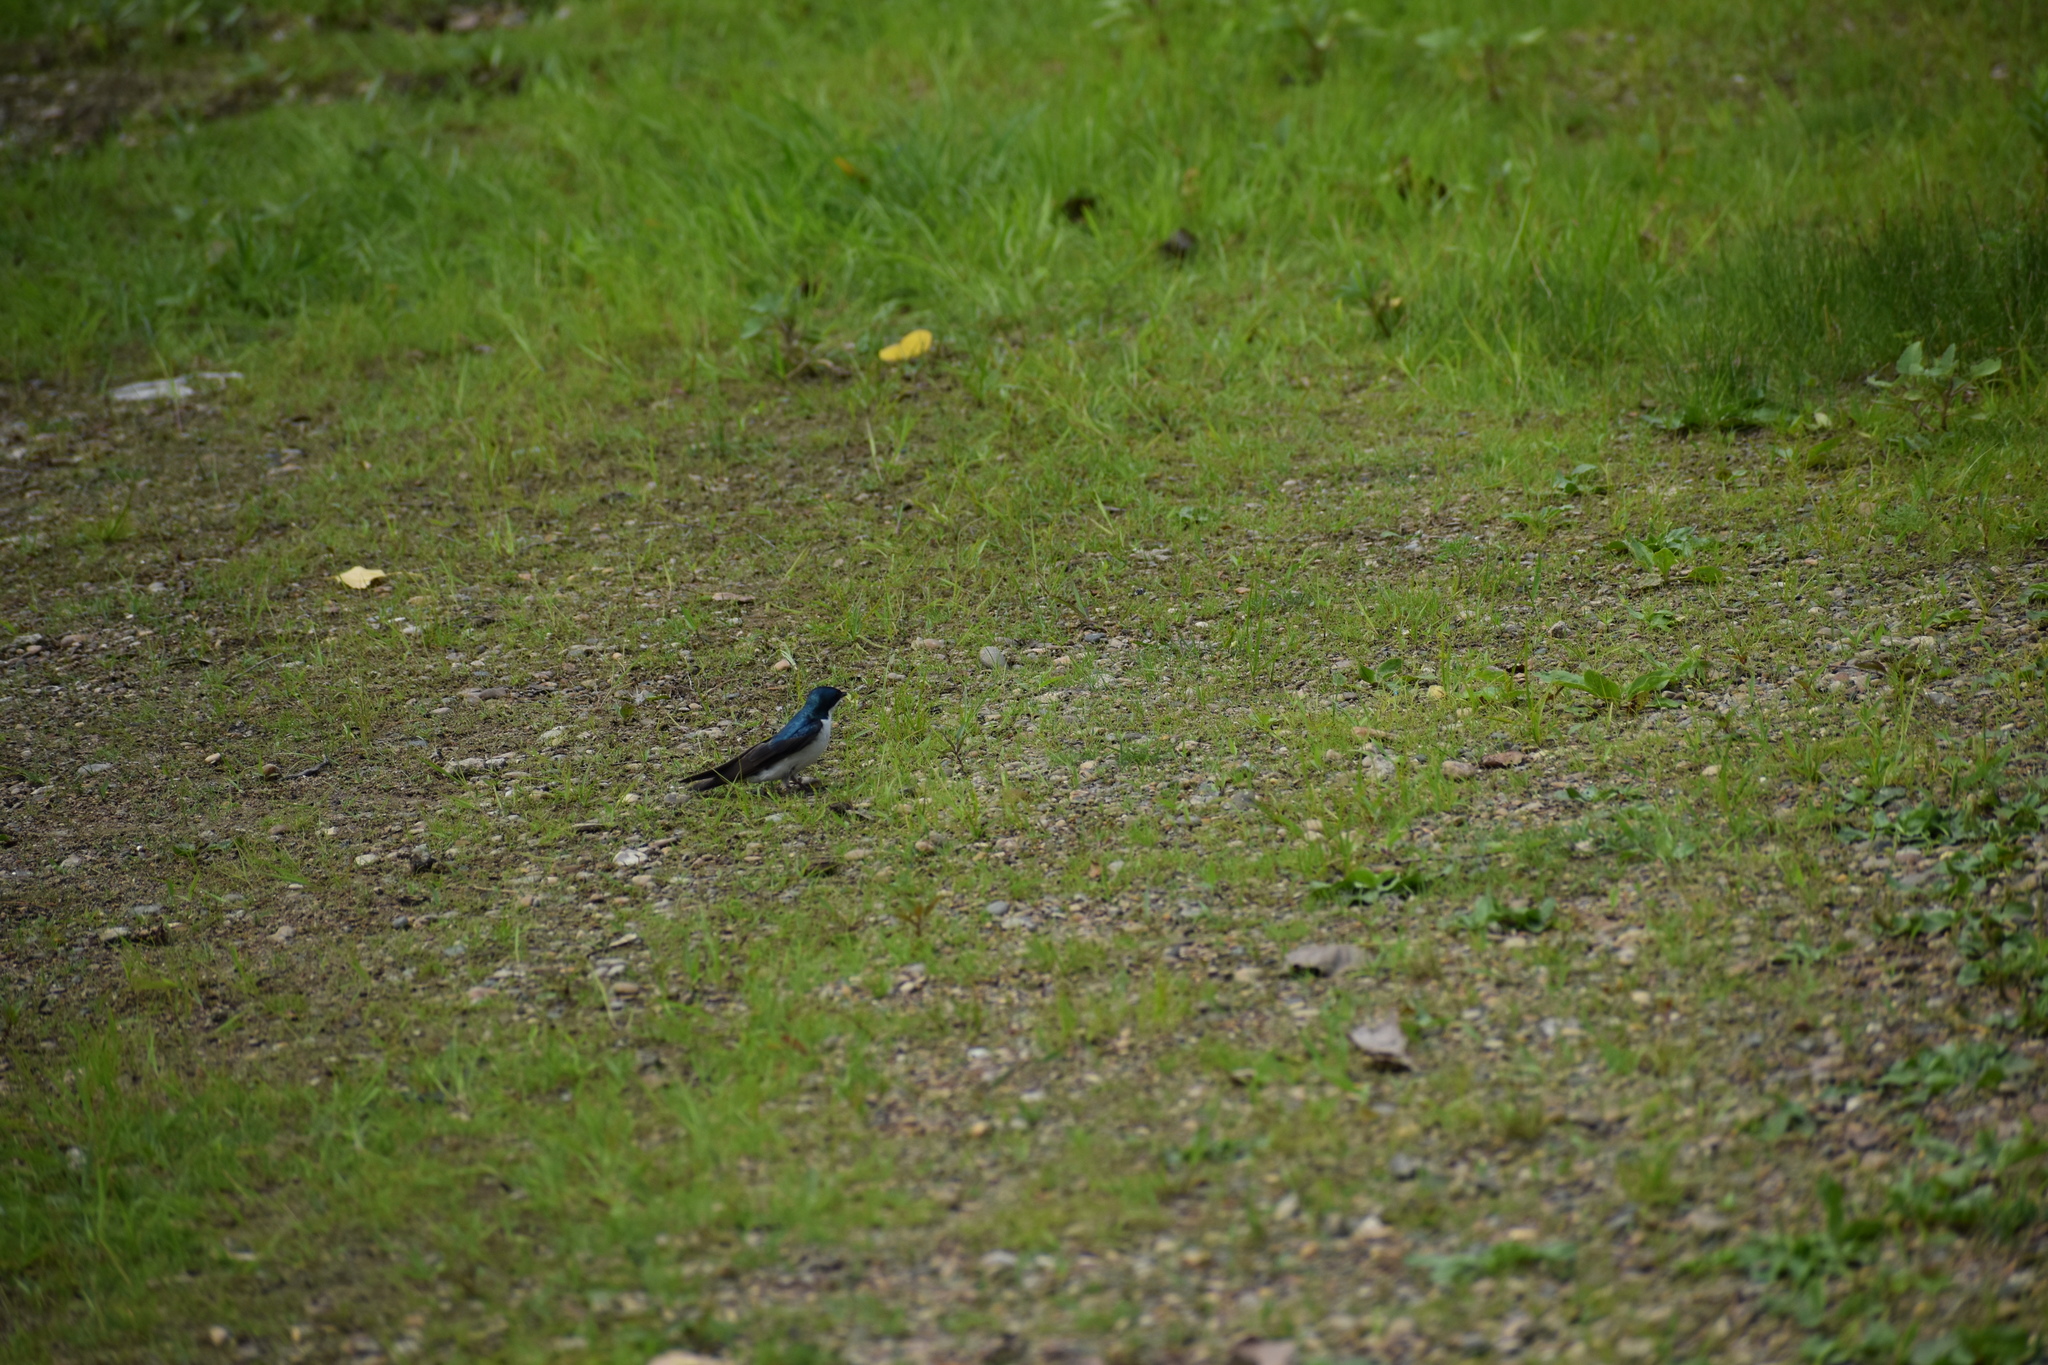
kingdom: Animalia
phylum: Chordata
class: Aves
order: Passeriformes
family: Hirundinidae
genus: Tachycineta
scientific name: Tachycineta bicolor
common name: Tree swallow
